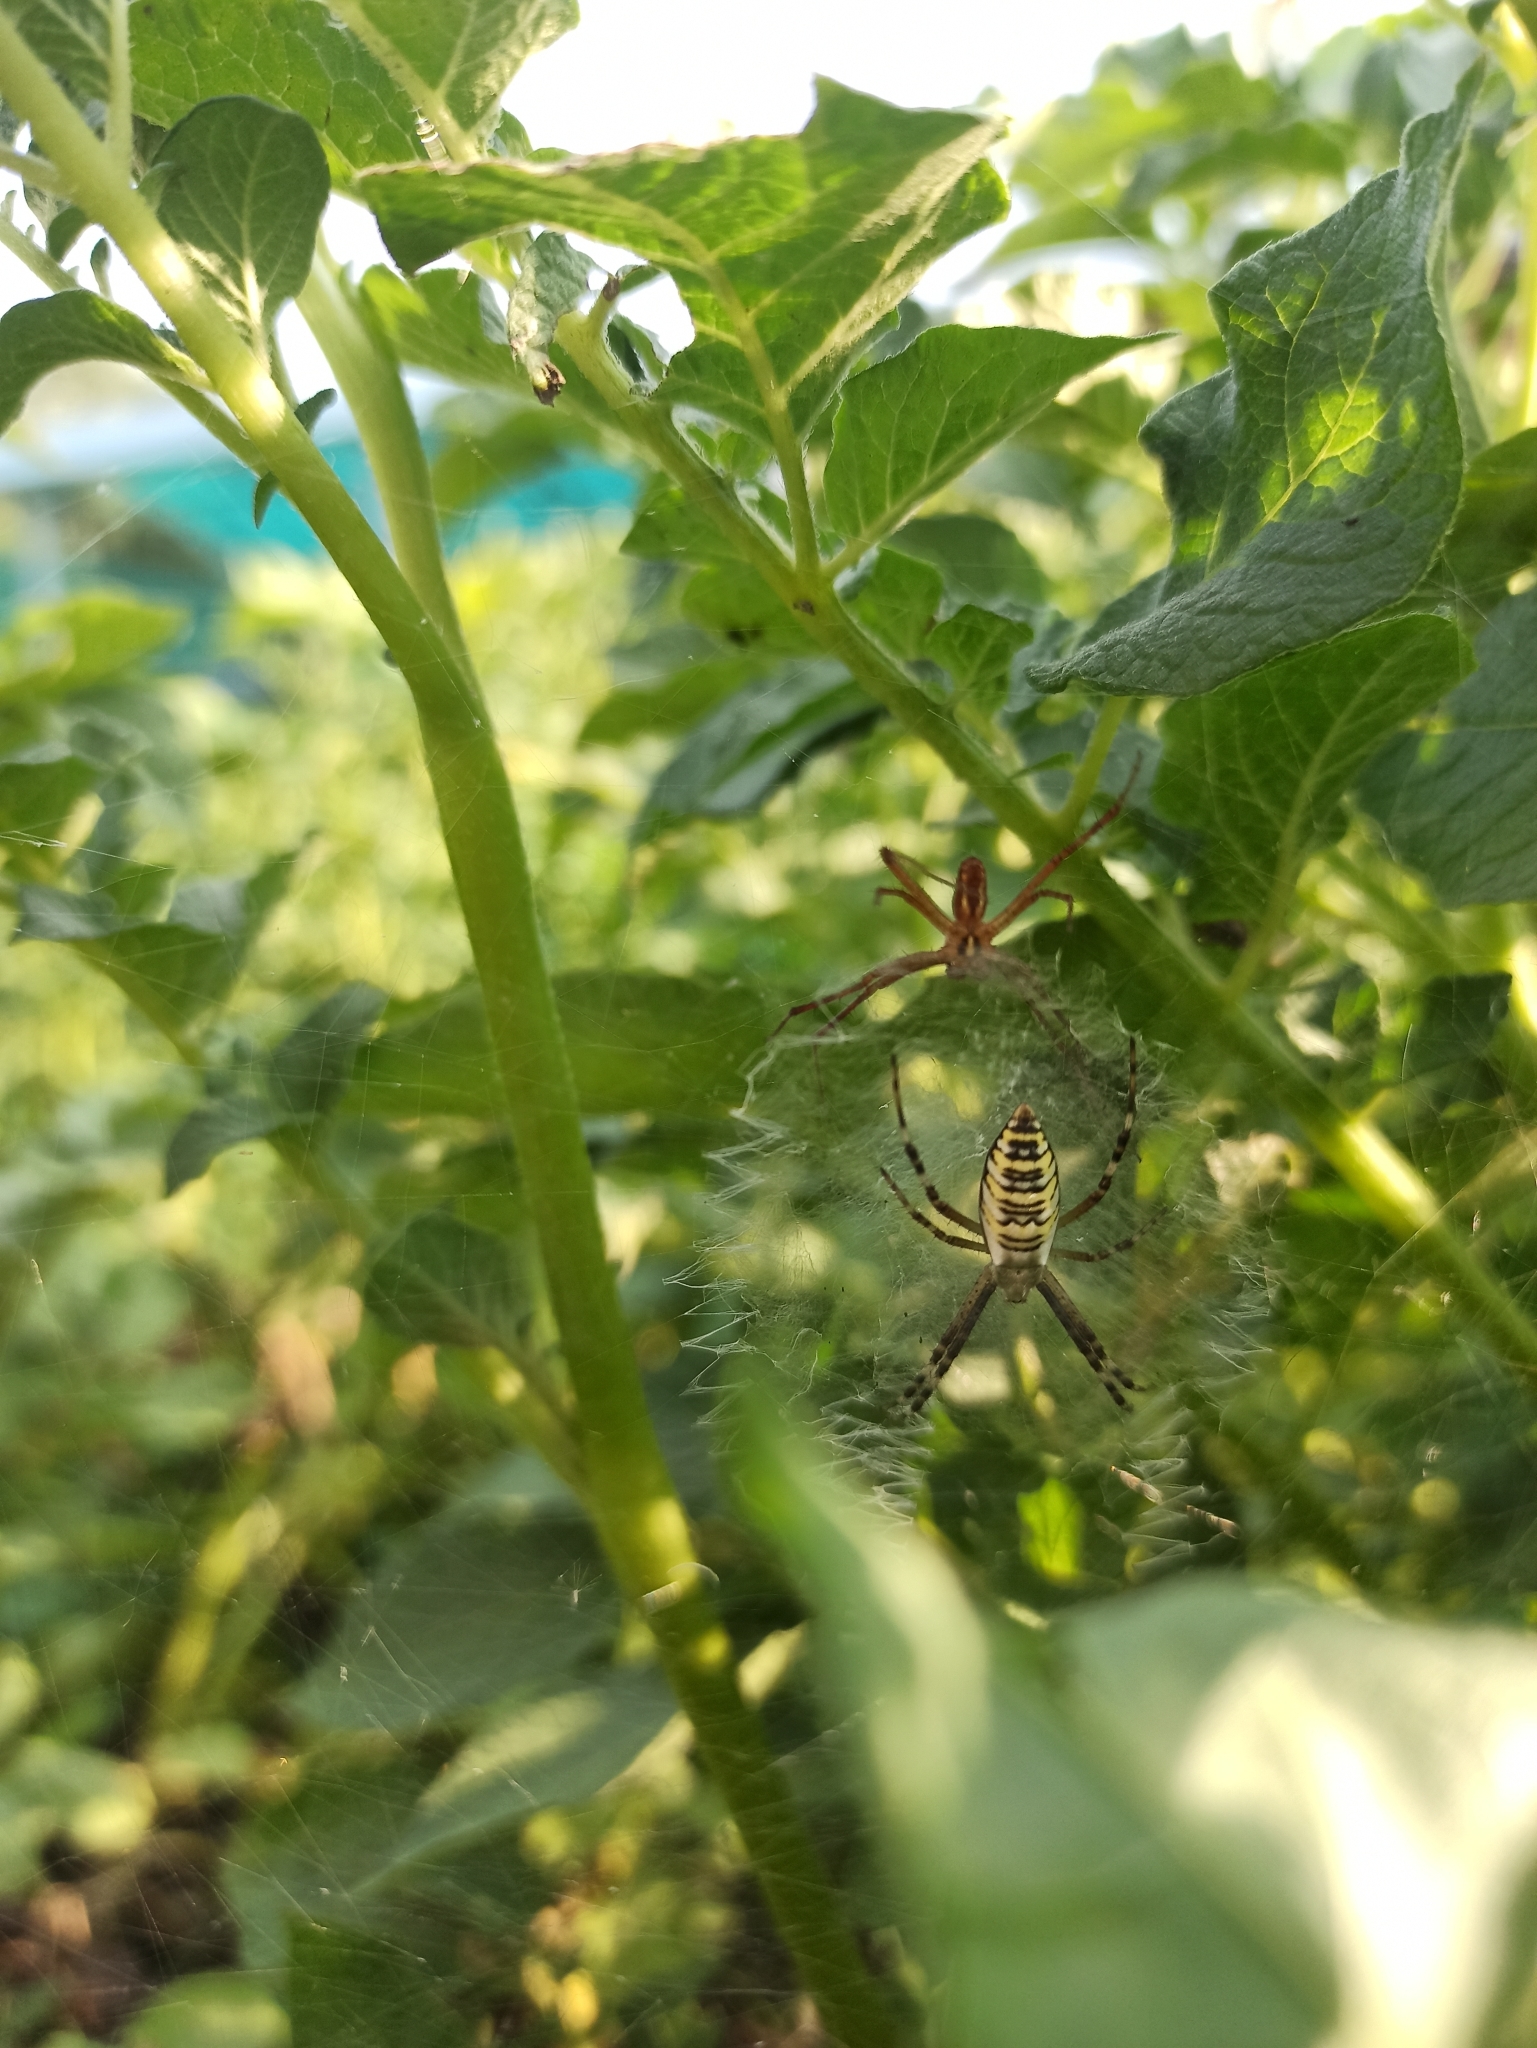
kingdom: Animalia
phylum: Arthropoda
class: Arachnida
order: Araneae
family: Araneidae
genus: Argiope
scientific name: Argiope bruennichi
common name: Wasp spider
